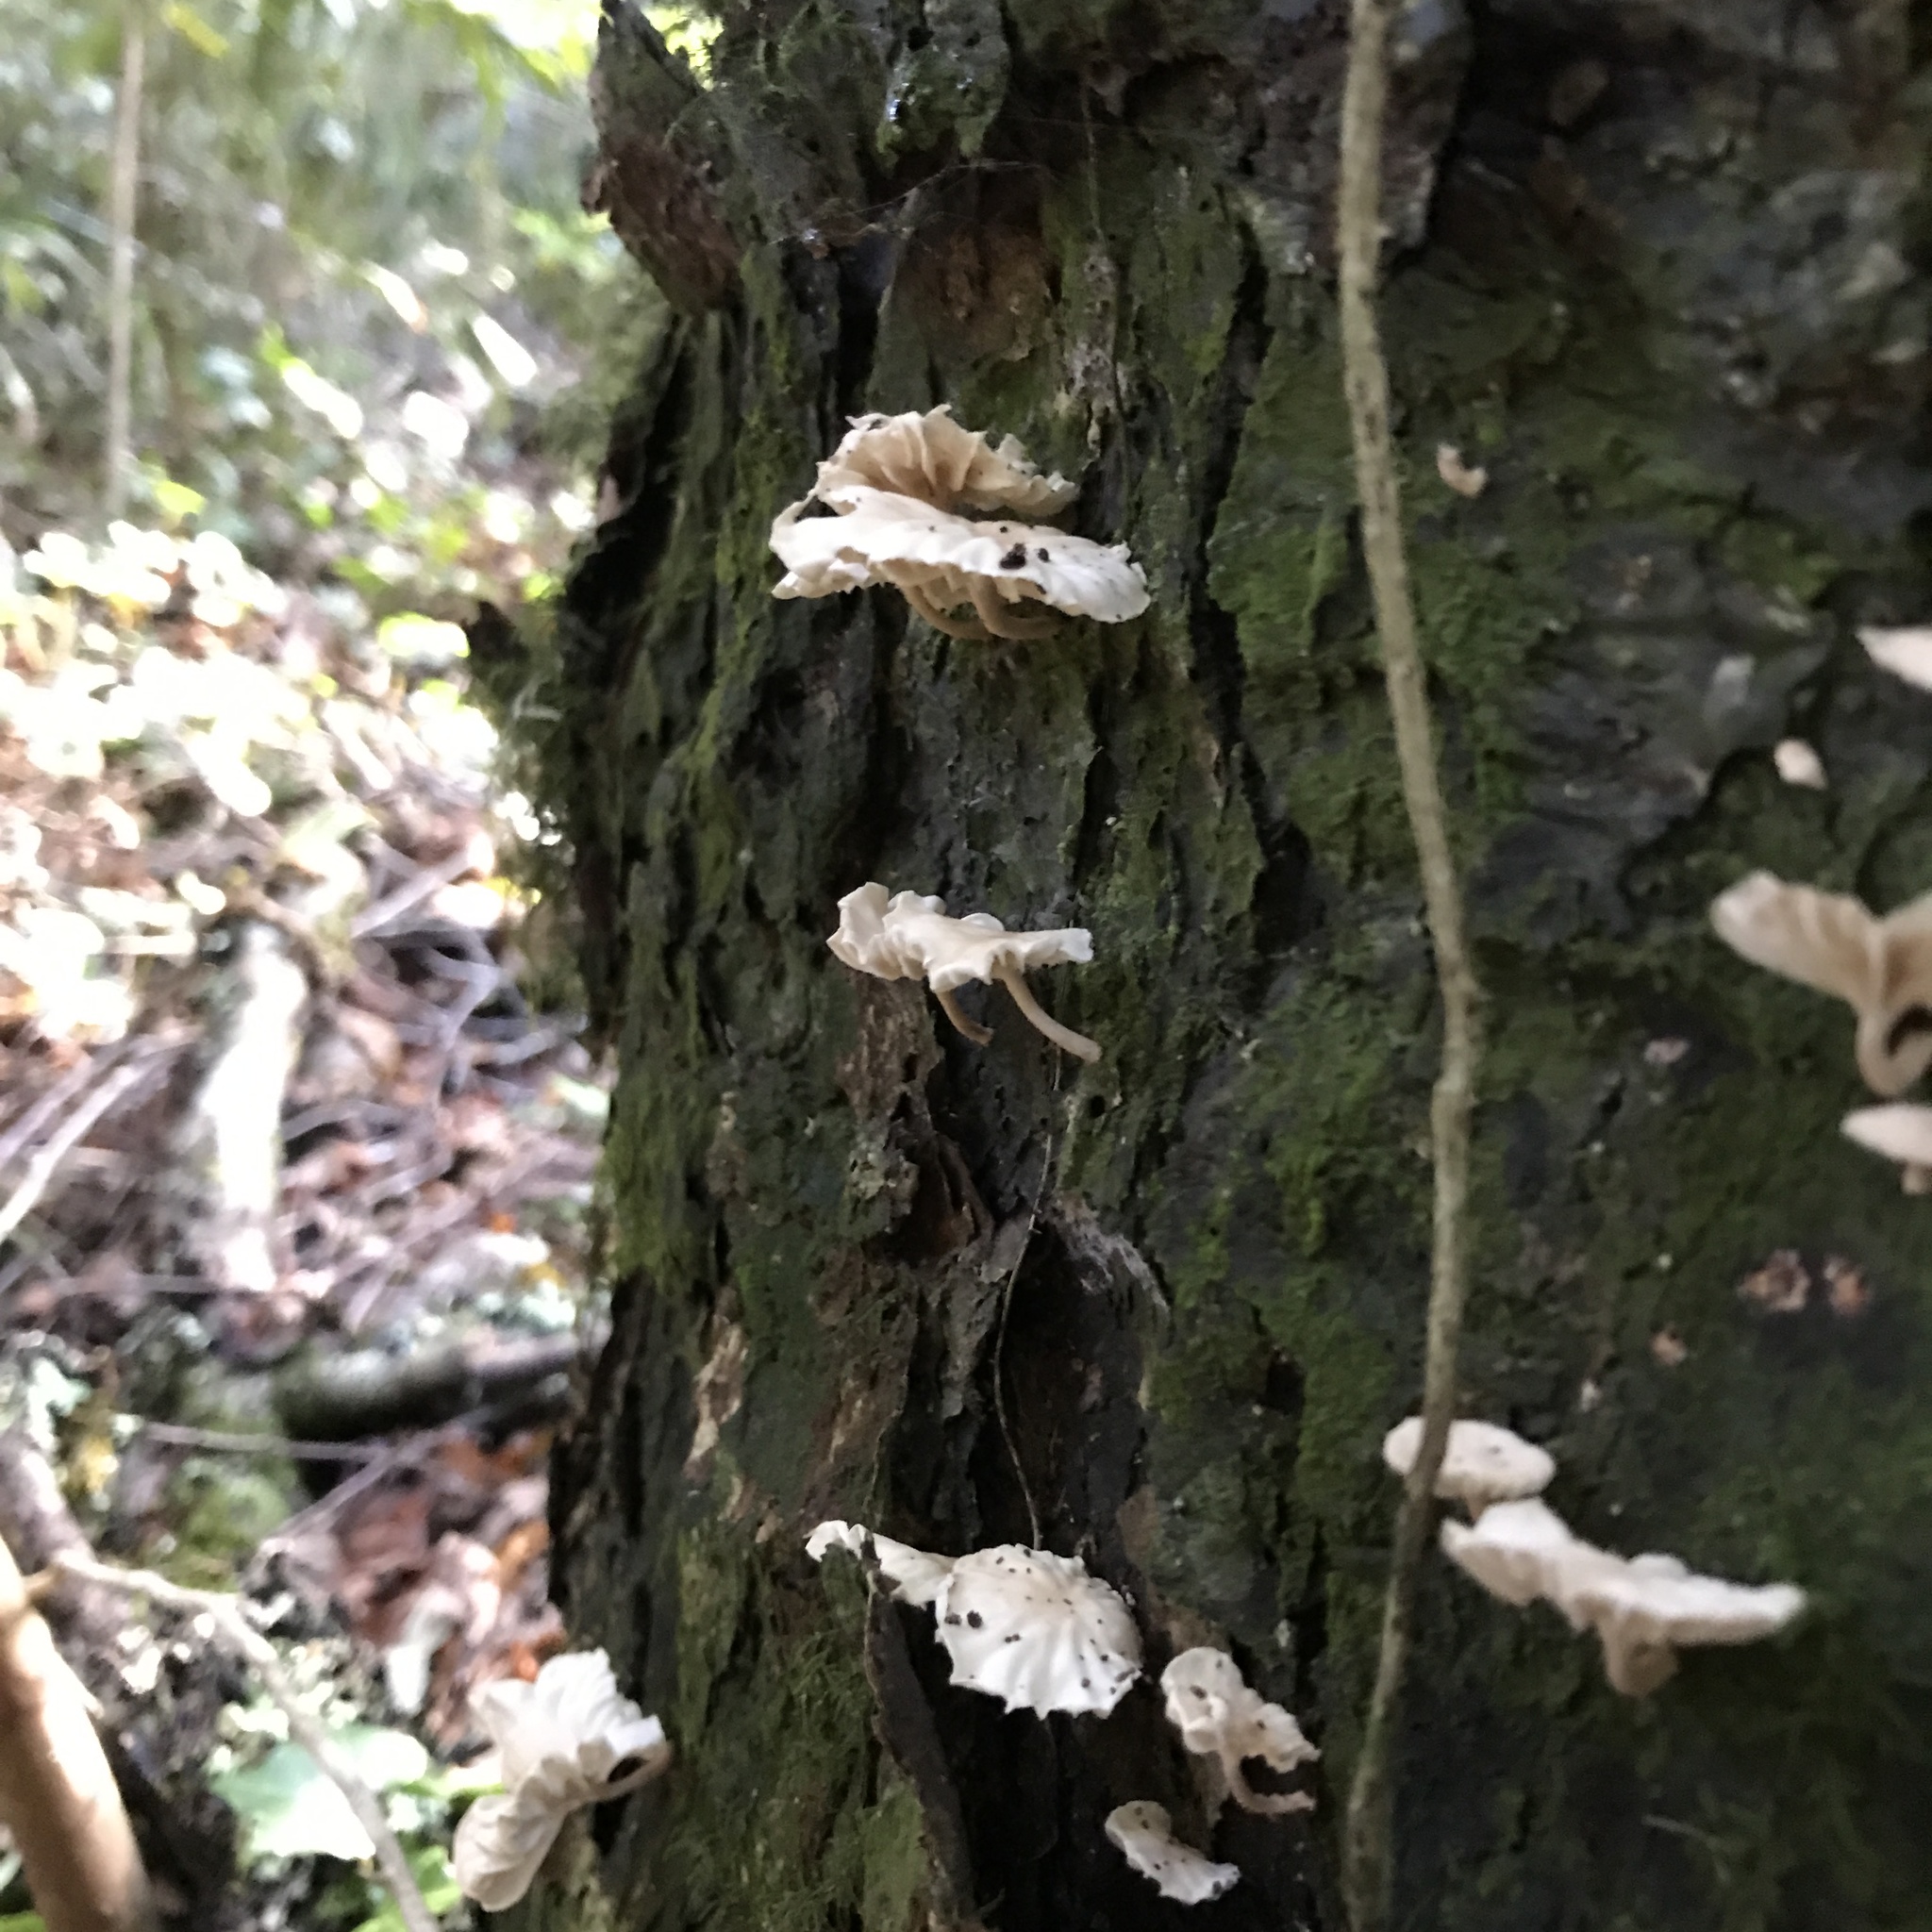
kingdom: Fungi
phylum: Basidiomycota
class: Agaricomycetes
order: Agaricales
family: Omphalotaceae
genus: Marasmiellus
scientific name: Marasmiellus alliiodorus
